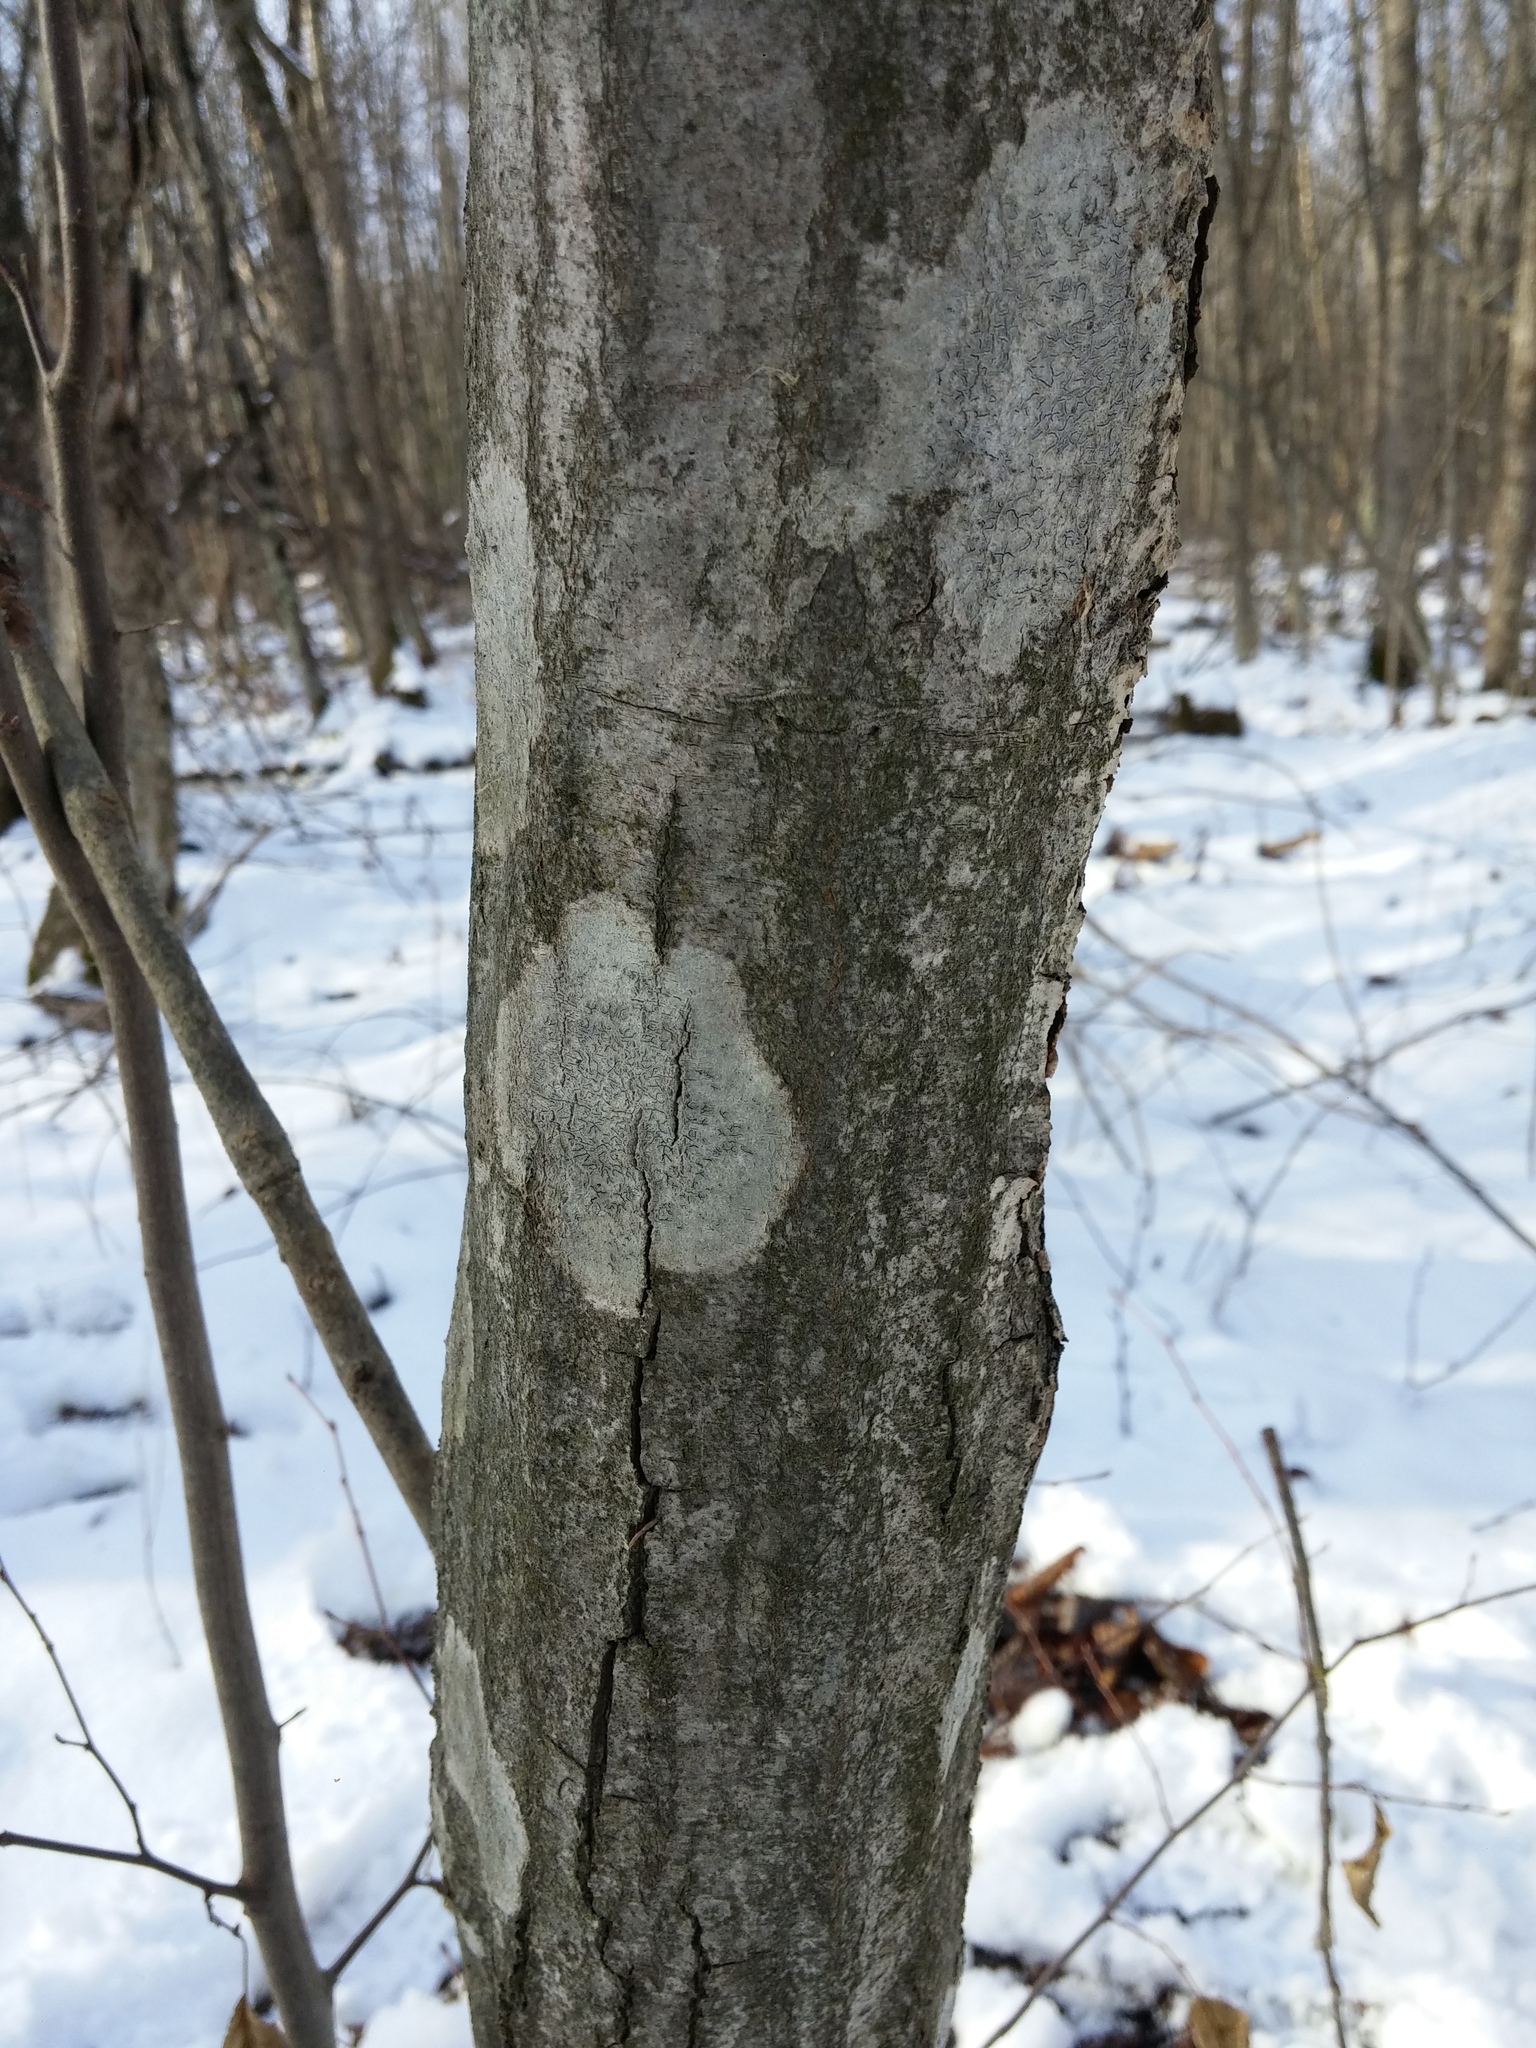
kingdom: Fungi
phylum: Ascomycota
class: Lecanoromycetes
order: Ostropales
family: Graphidaceae
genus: Graphis
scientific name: Graphis scripta
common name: Script lichen
